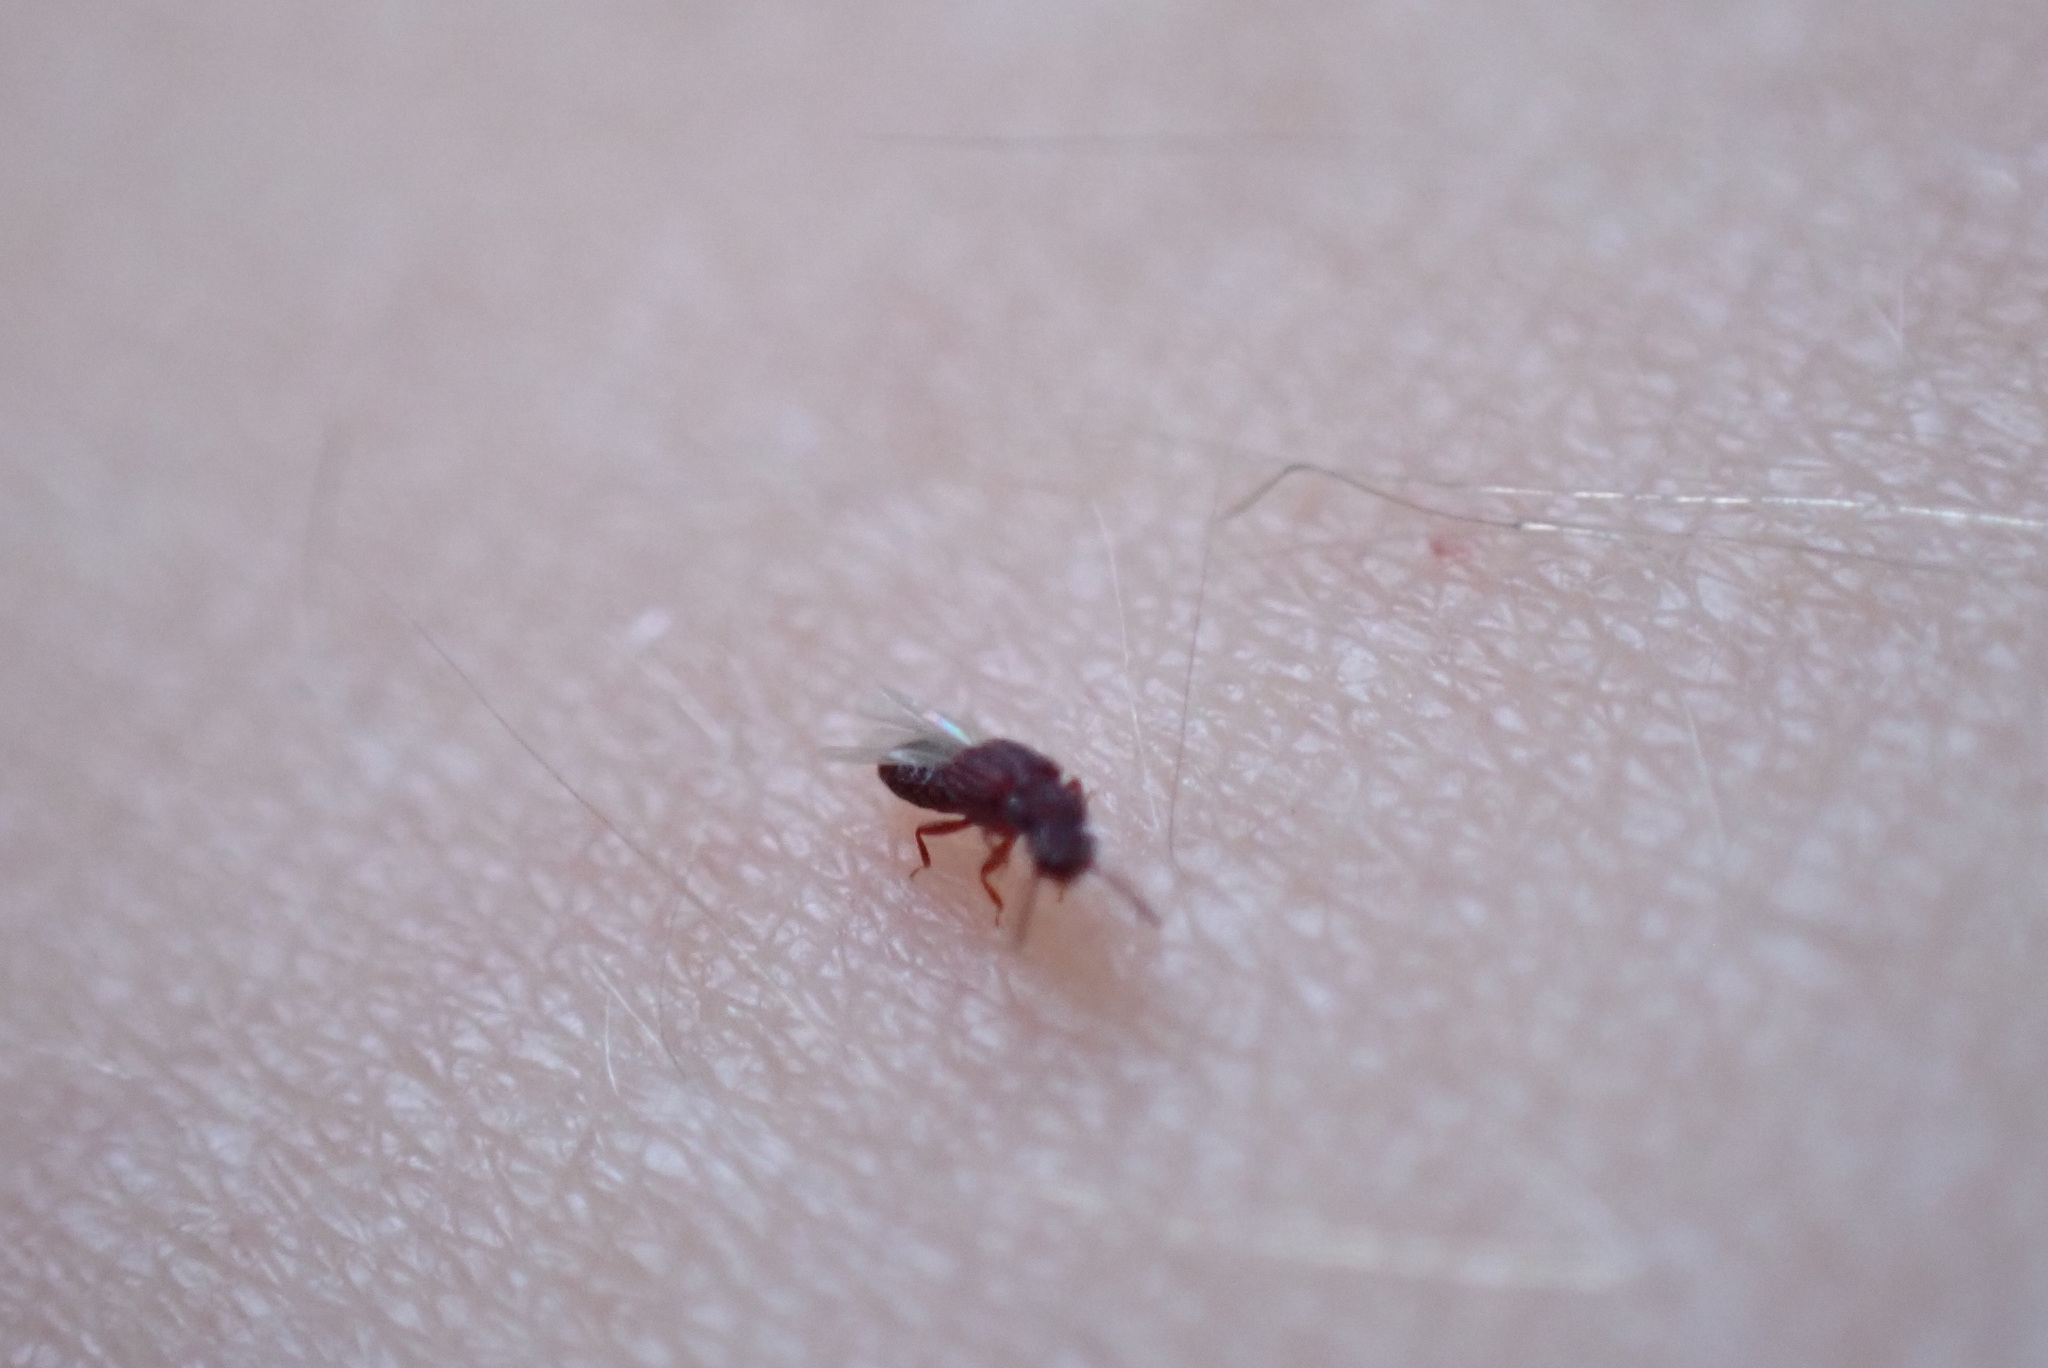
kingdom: Animalia
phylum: Arthropoda
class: Insecta
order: Coleoptera
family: Staphylinidae
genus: Thoracophorus
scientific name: Thoracophorus costalis
